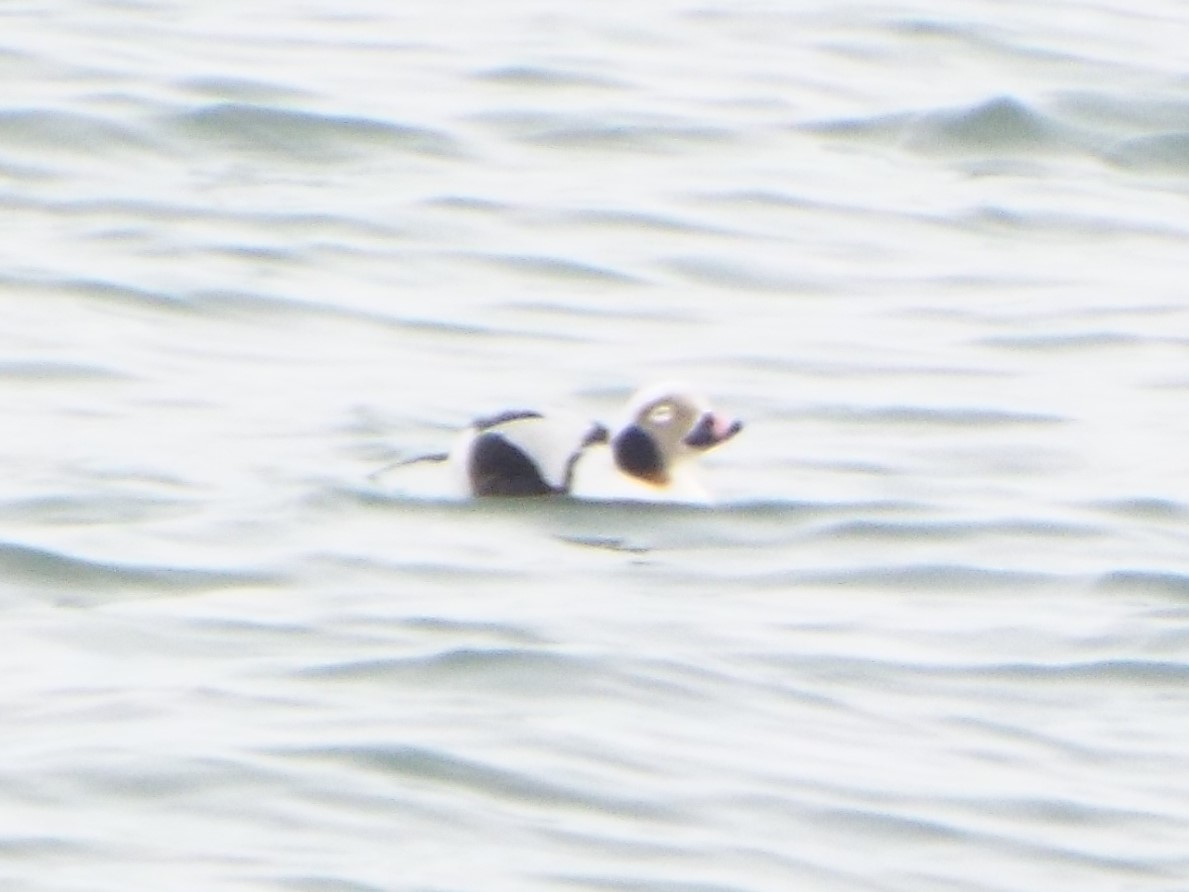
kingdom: Animalia
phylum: Chordata
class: Aves
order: Anseriformes
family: Anatidae
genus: Clangula
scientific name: Clangula hyemalis
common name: Long-tailed duck
